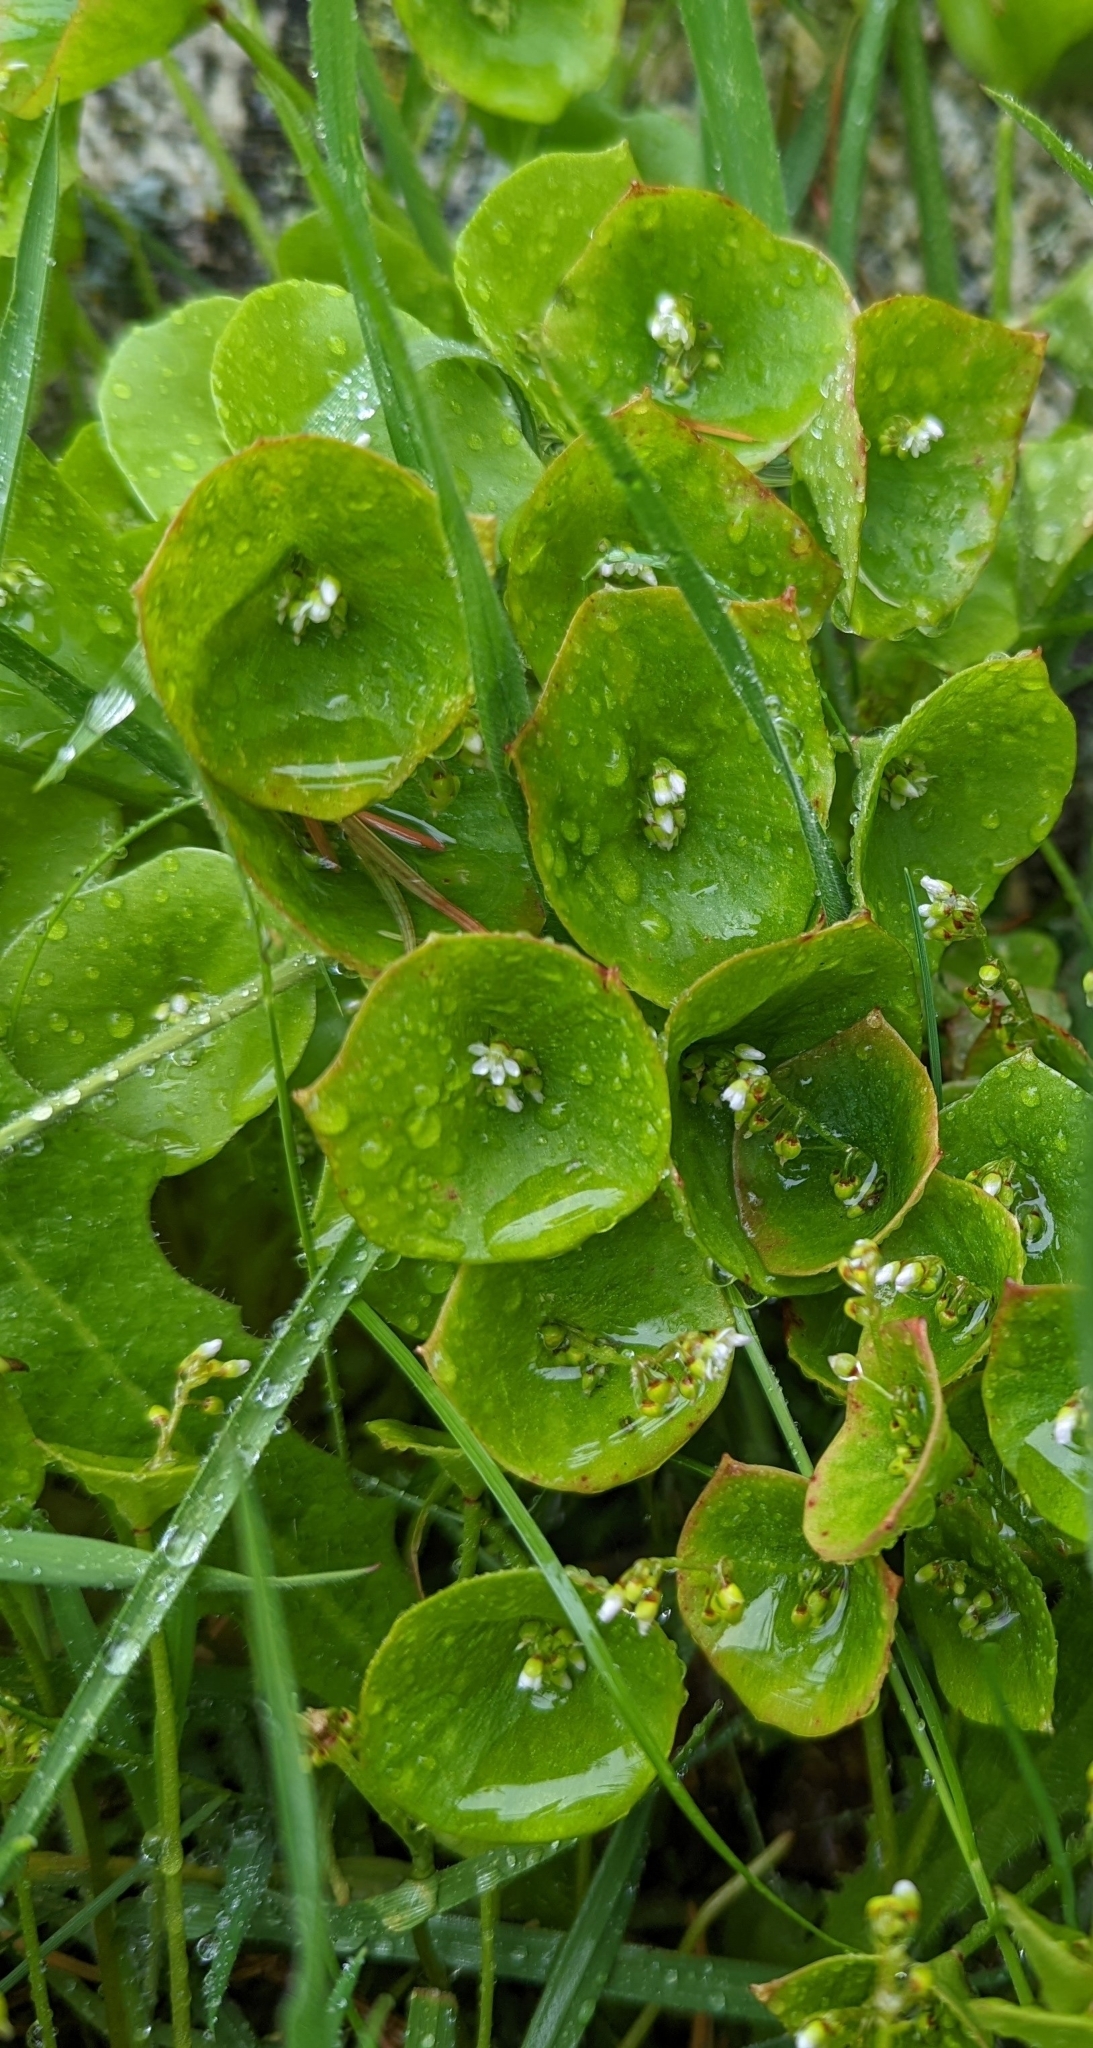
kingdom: Plantae
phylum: Tracheophyta
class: Magnoliopsida
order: Caryophyllales
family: Montiaceae
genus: Claytonia
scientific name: Claytonia perfoliata
